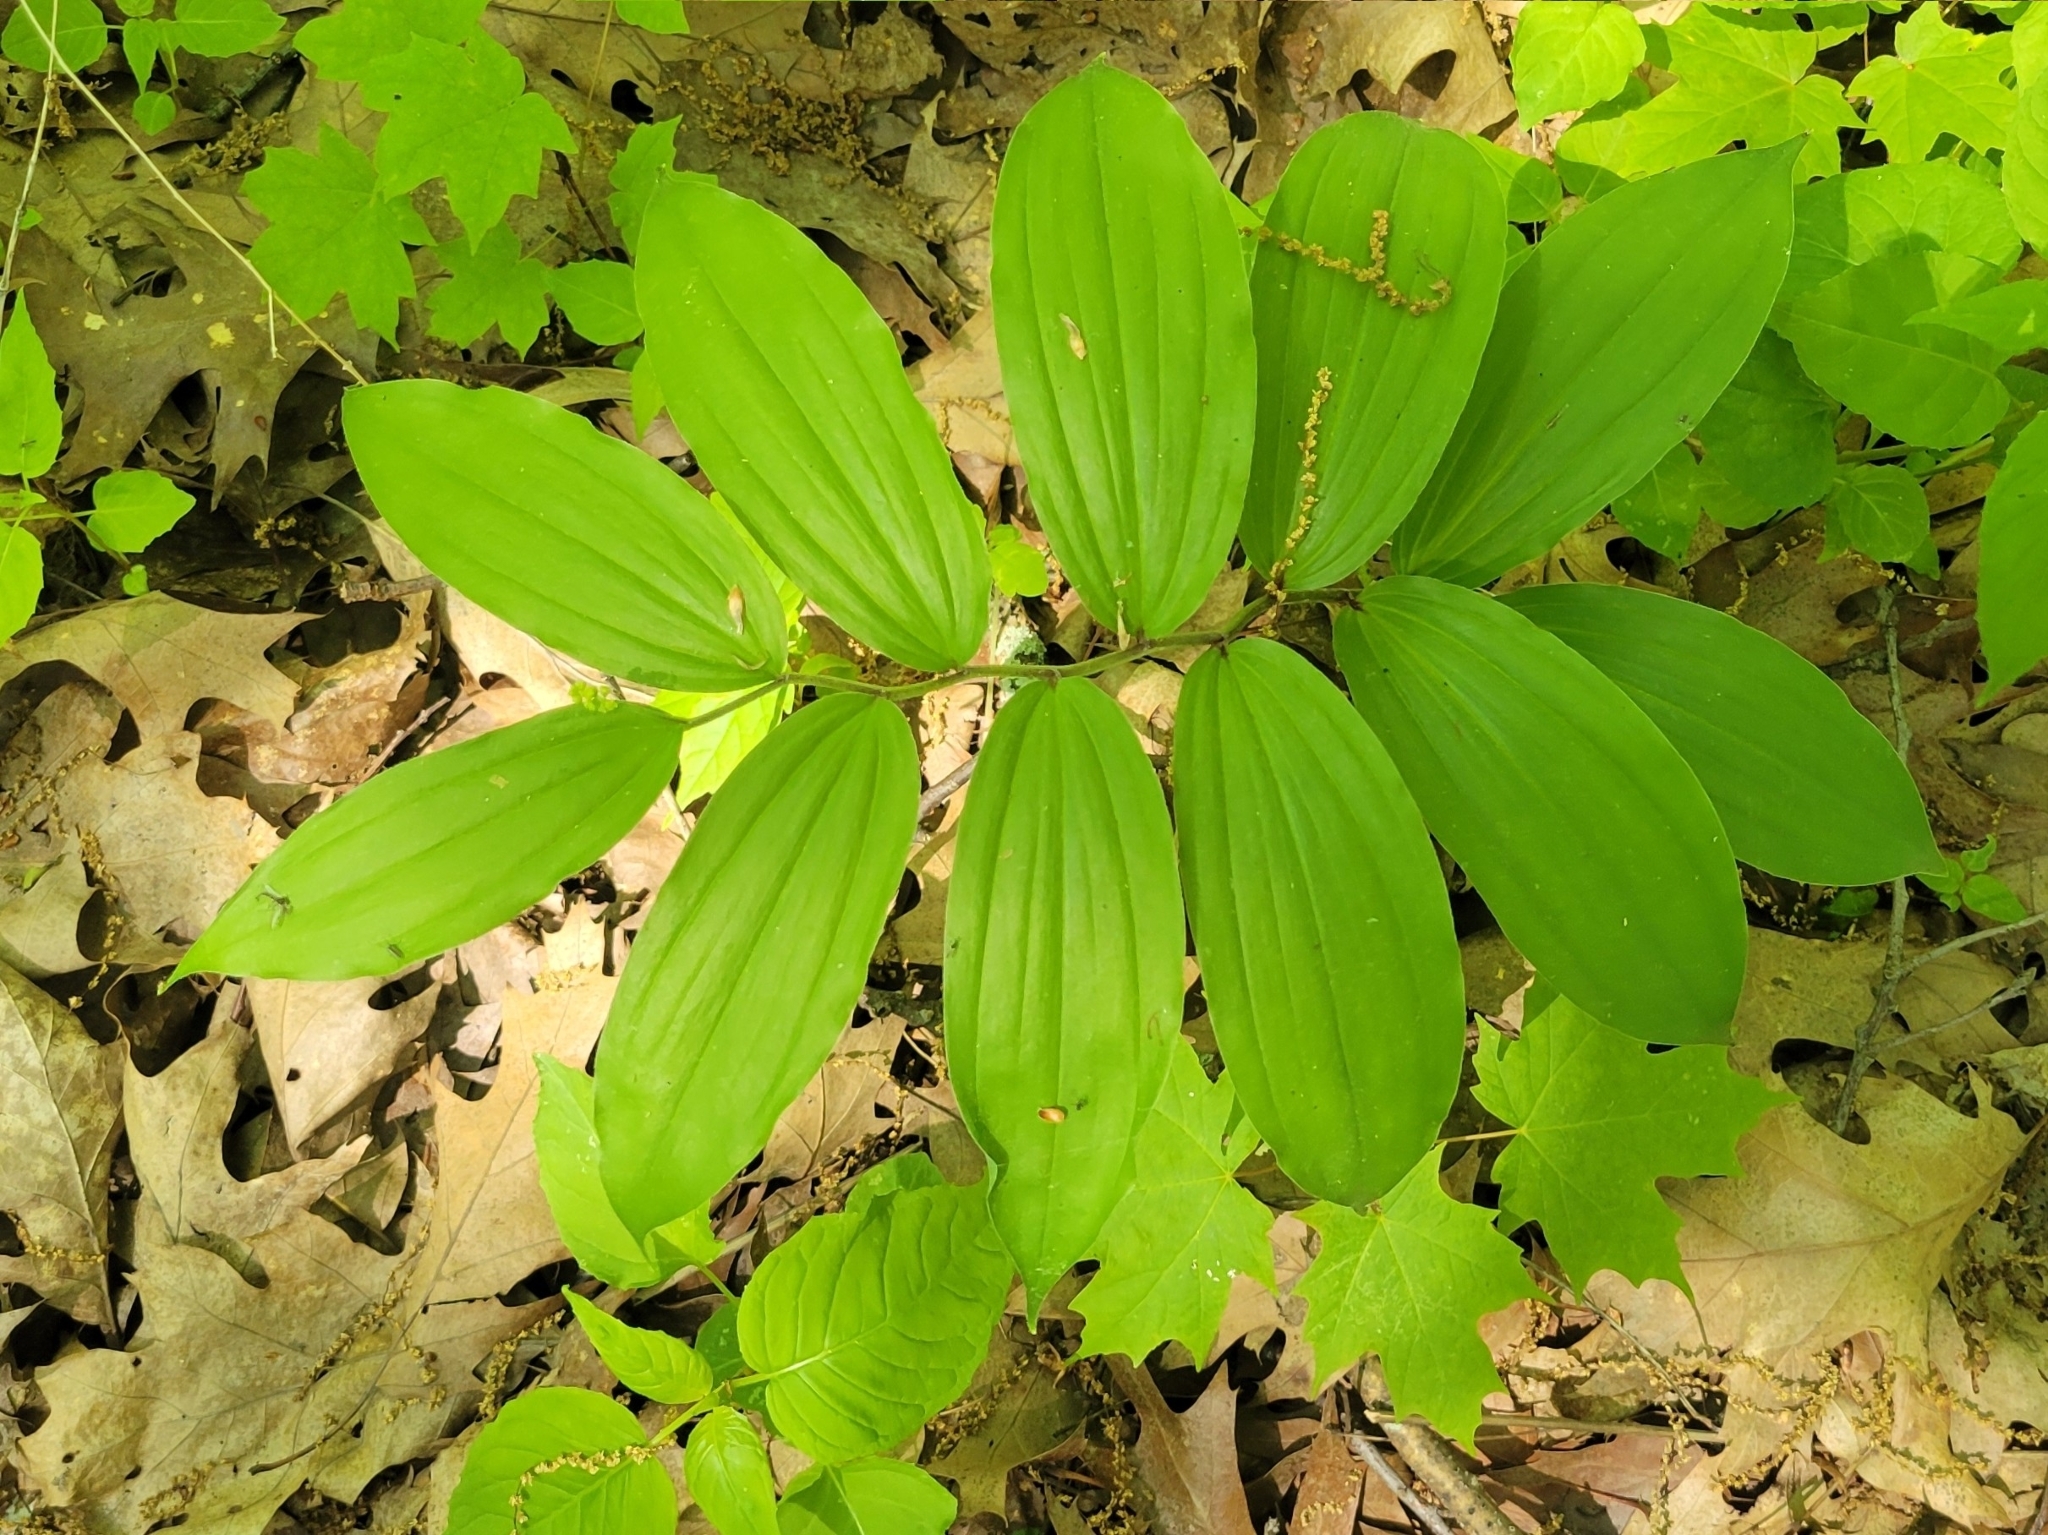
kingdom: Plantae
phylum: Tracheophyta
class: Liliopsida
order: Asparagales
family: Asparagaceae
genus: Maianthemum
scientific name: Maianthemum racemosum
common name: False spikenard
